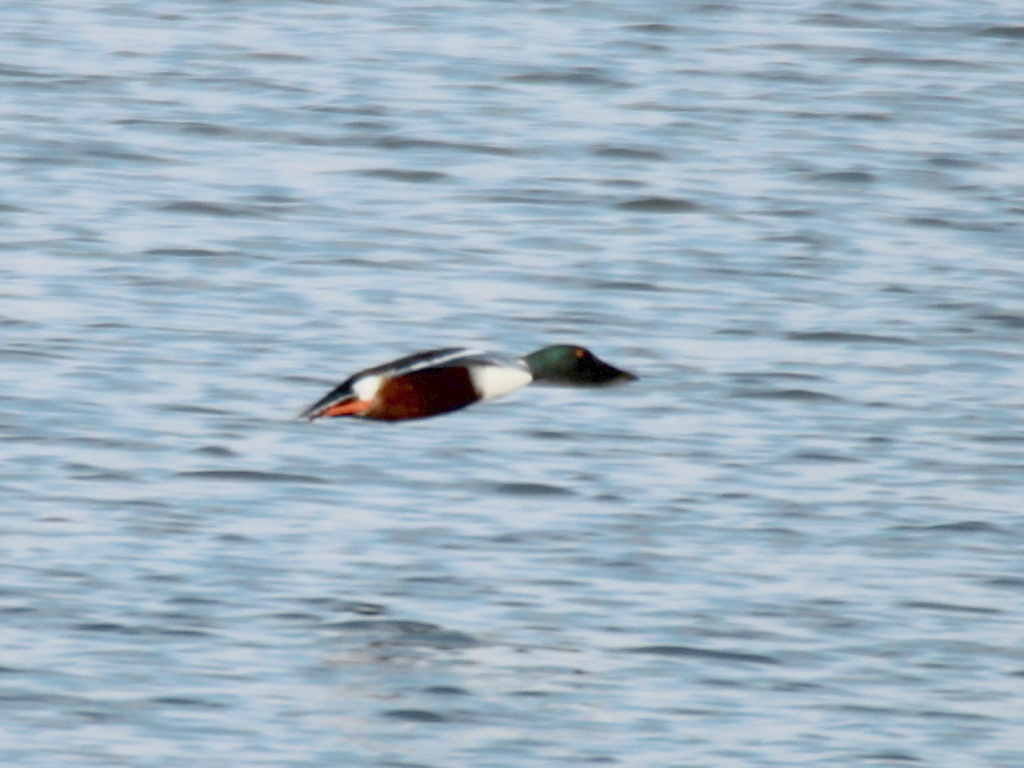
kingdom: Animalia
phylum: Chordata
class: Aves
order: Anseriformes
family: Anatidae
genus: Spatula
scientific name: Spatula clypeata
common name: Northern shoveler
